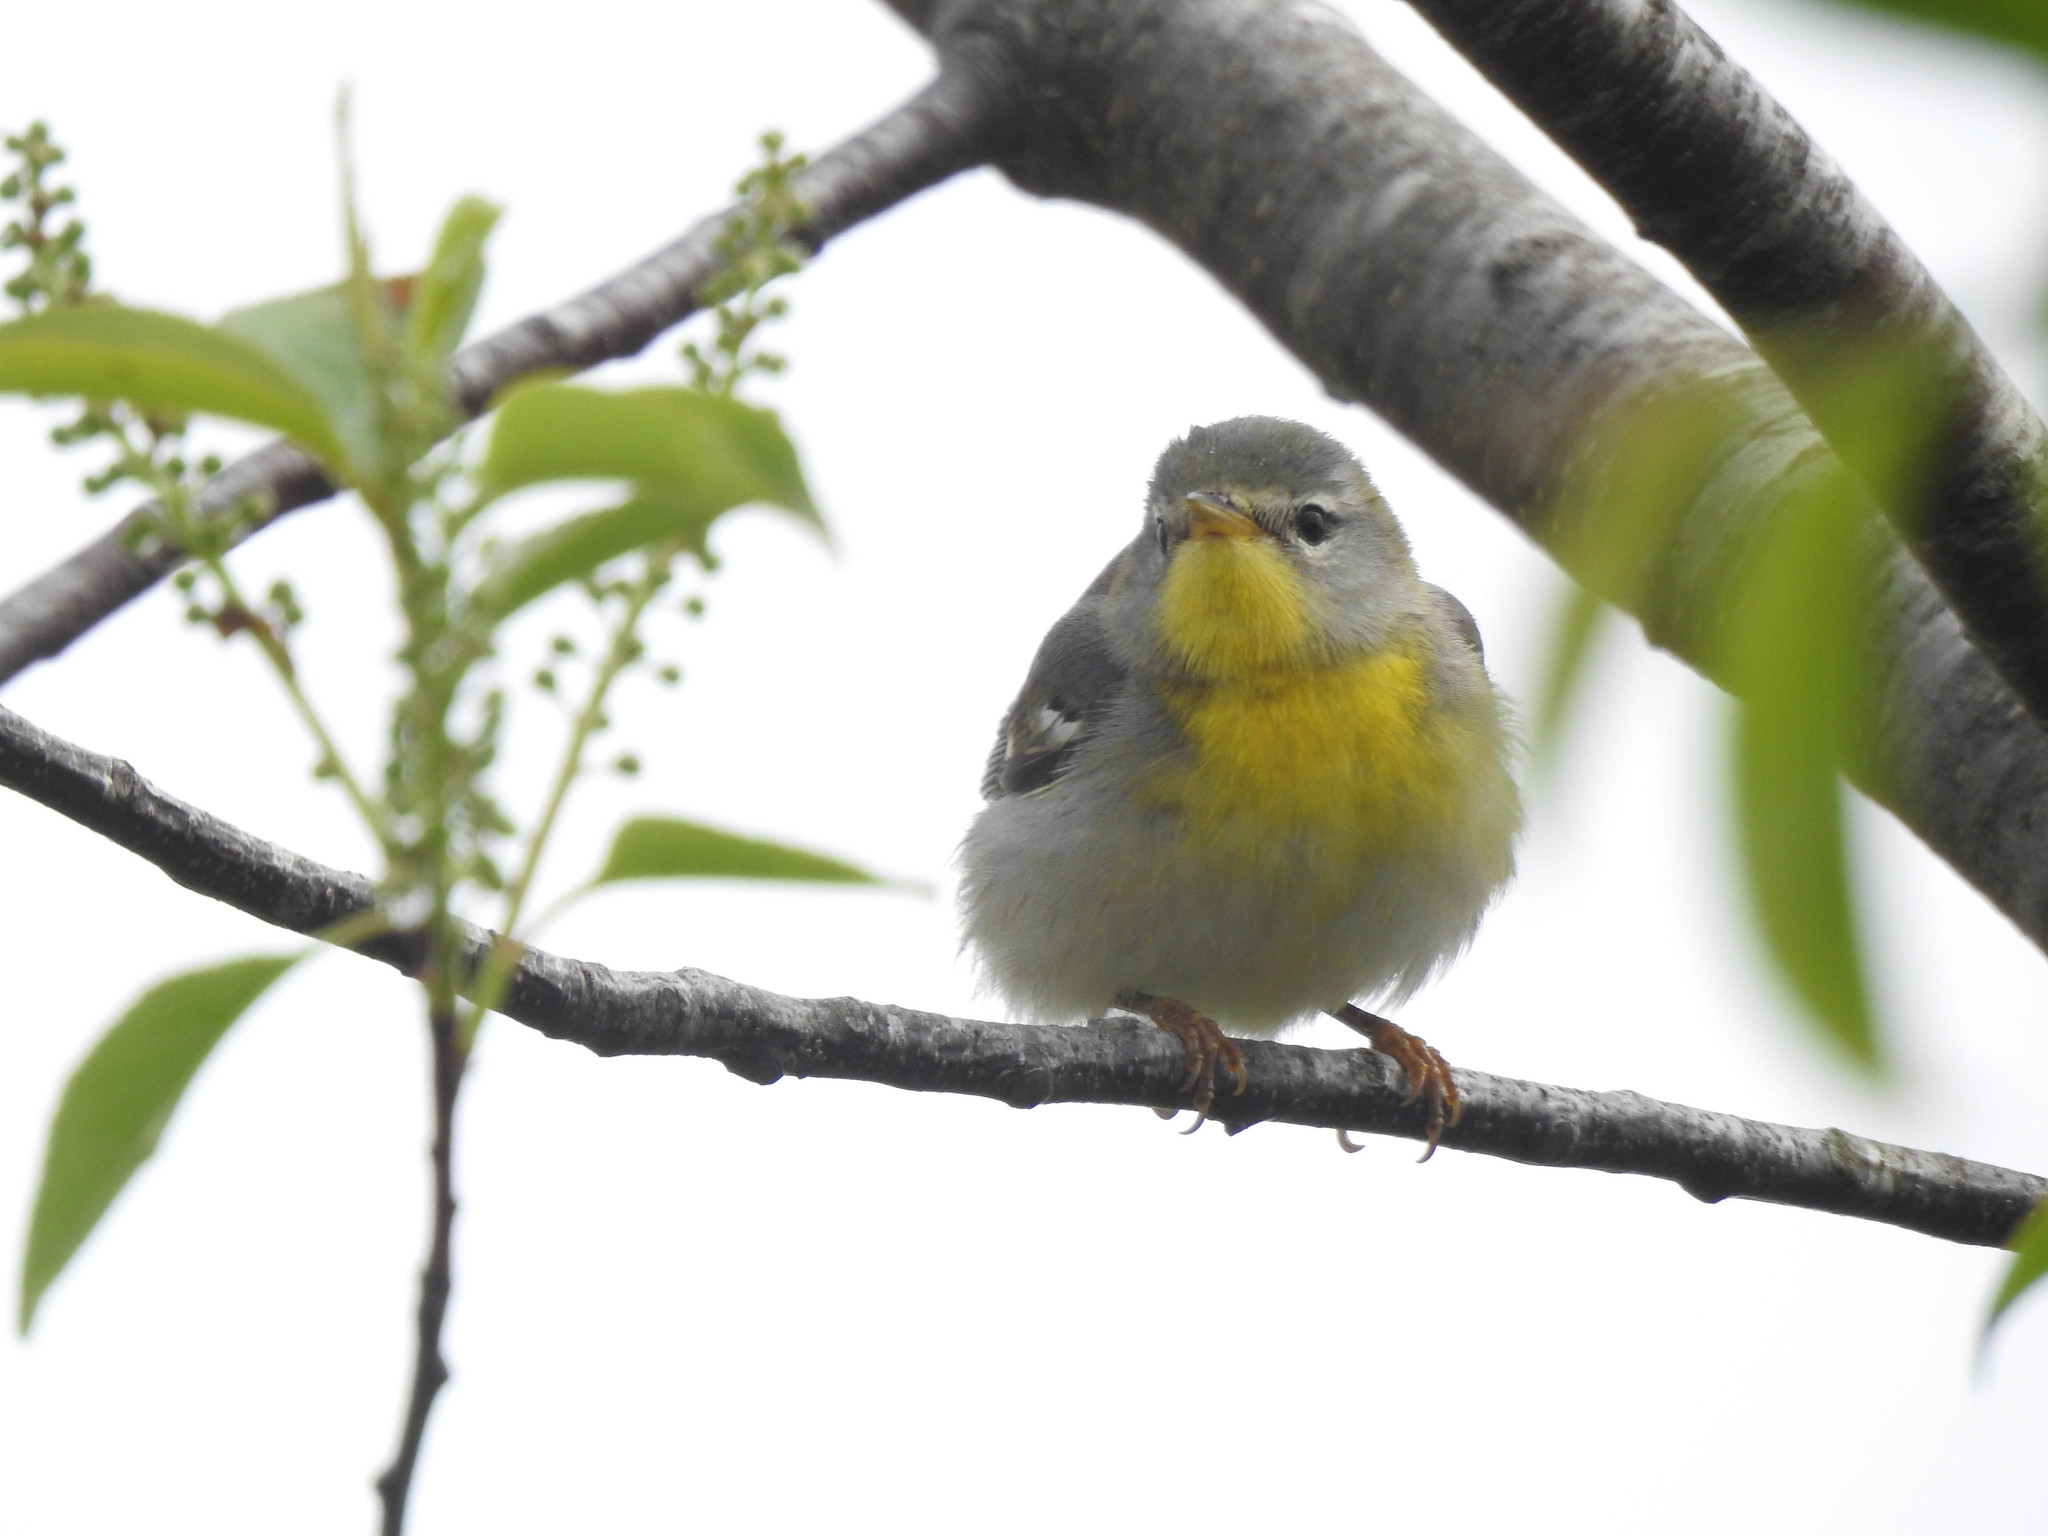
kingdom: Animalia
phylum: Chordata
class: Aves
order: Passeriformes
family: Parulidae
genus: Setophaga
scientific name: Setophaga americana
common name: Northern parula
